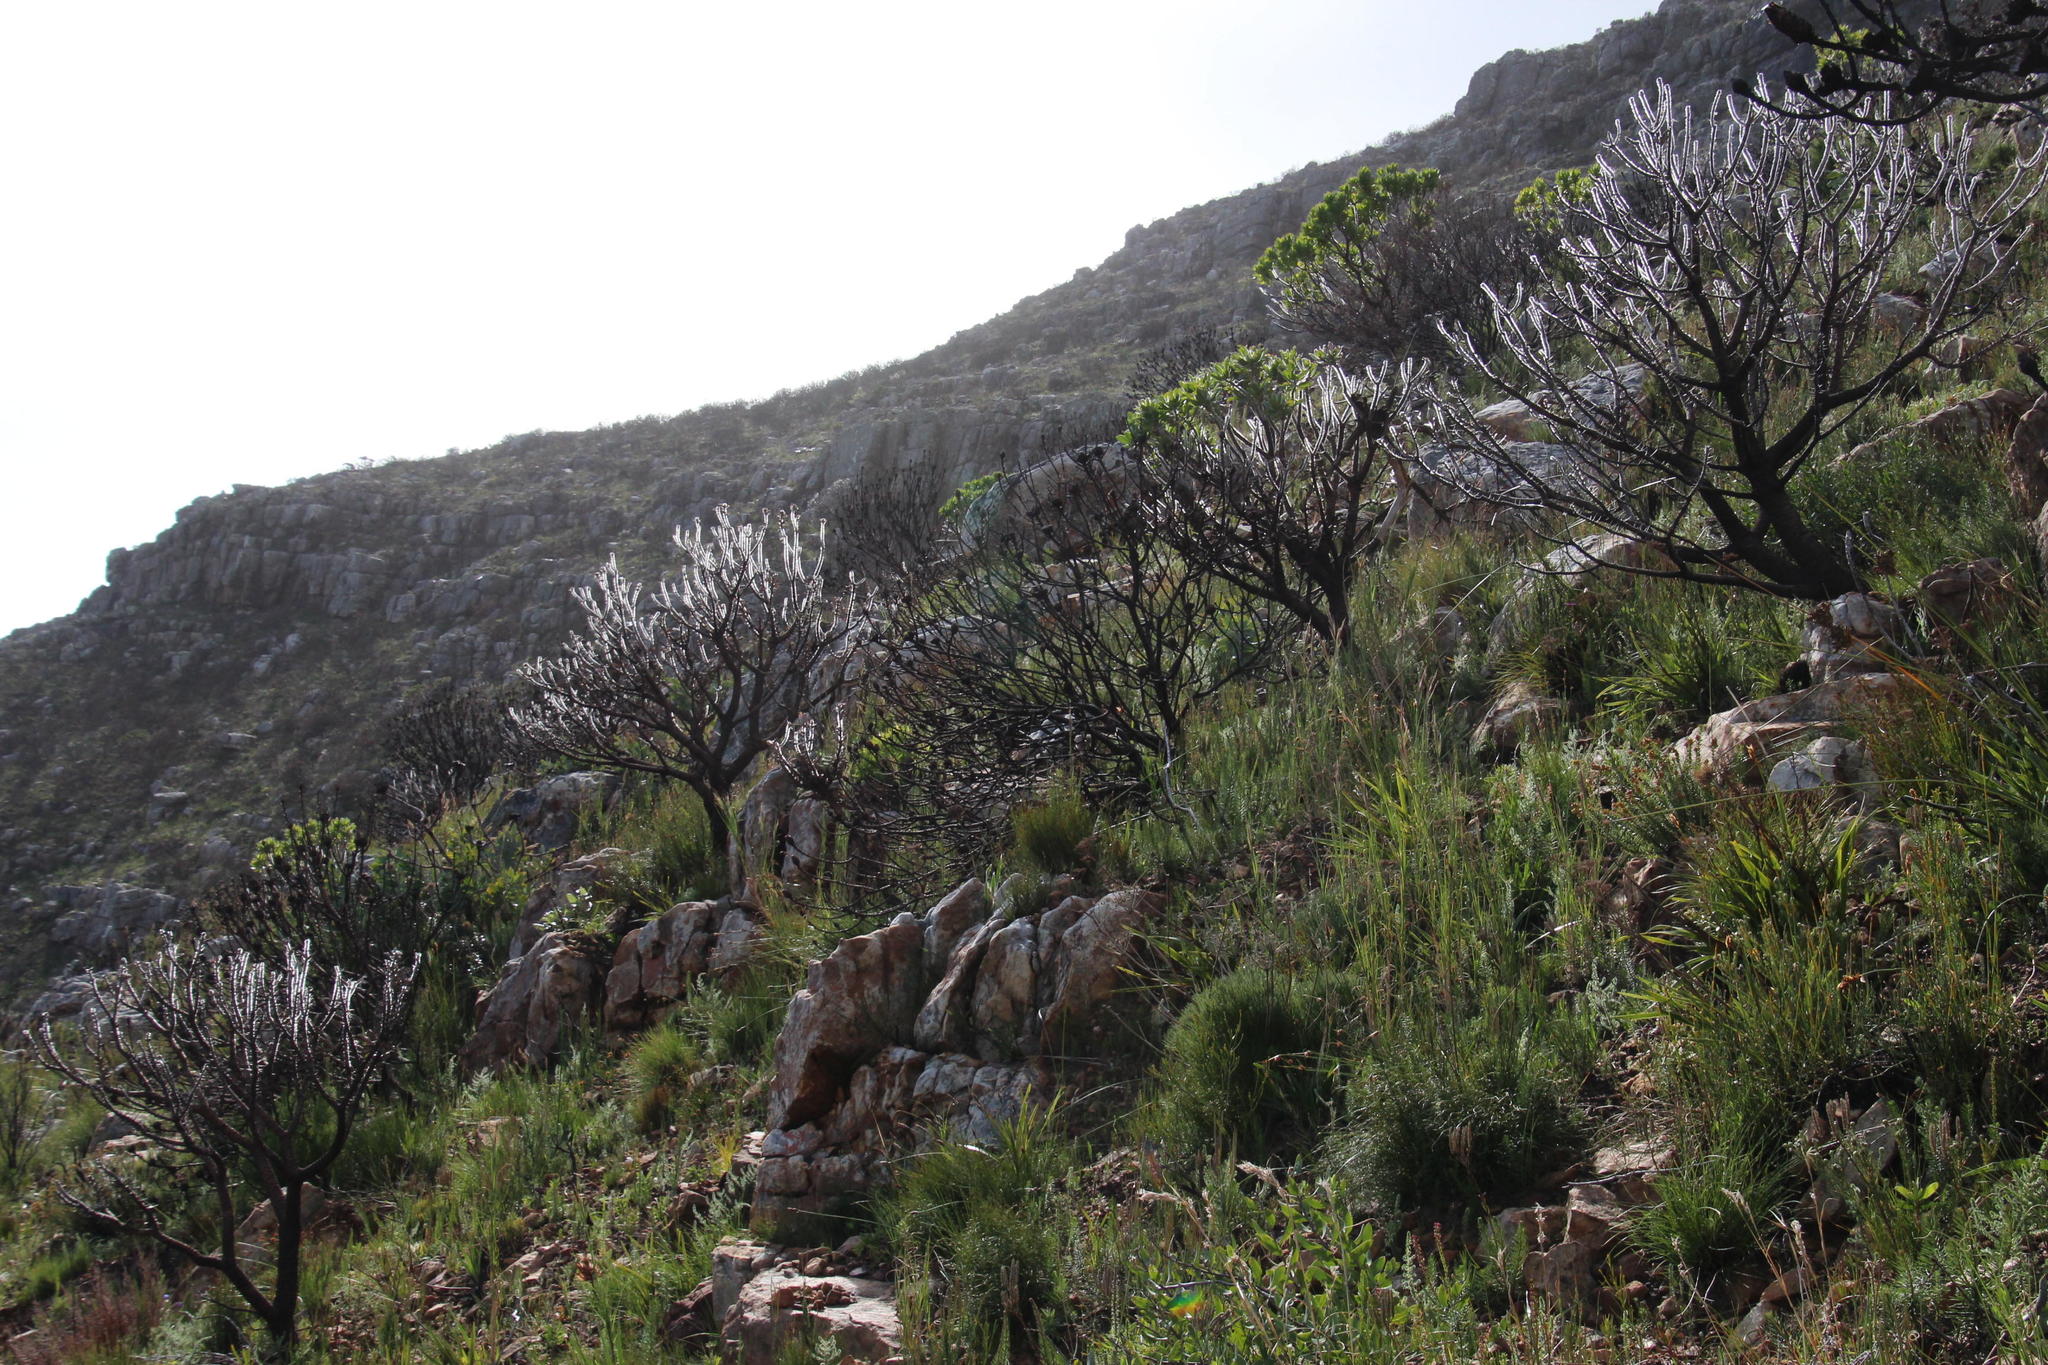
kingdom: Plantae
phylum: Tracheophyta
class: Magnoliopsida
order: Proteales
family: Proteaceae
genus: Leucospermum
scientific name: Leucospermum conocarpodendron
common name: Tree pincushion
